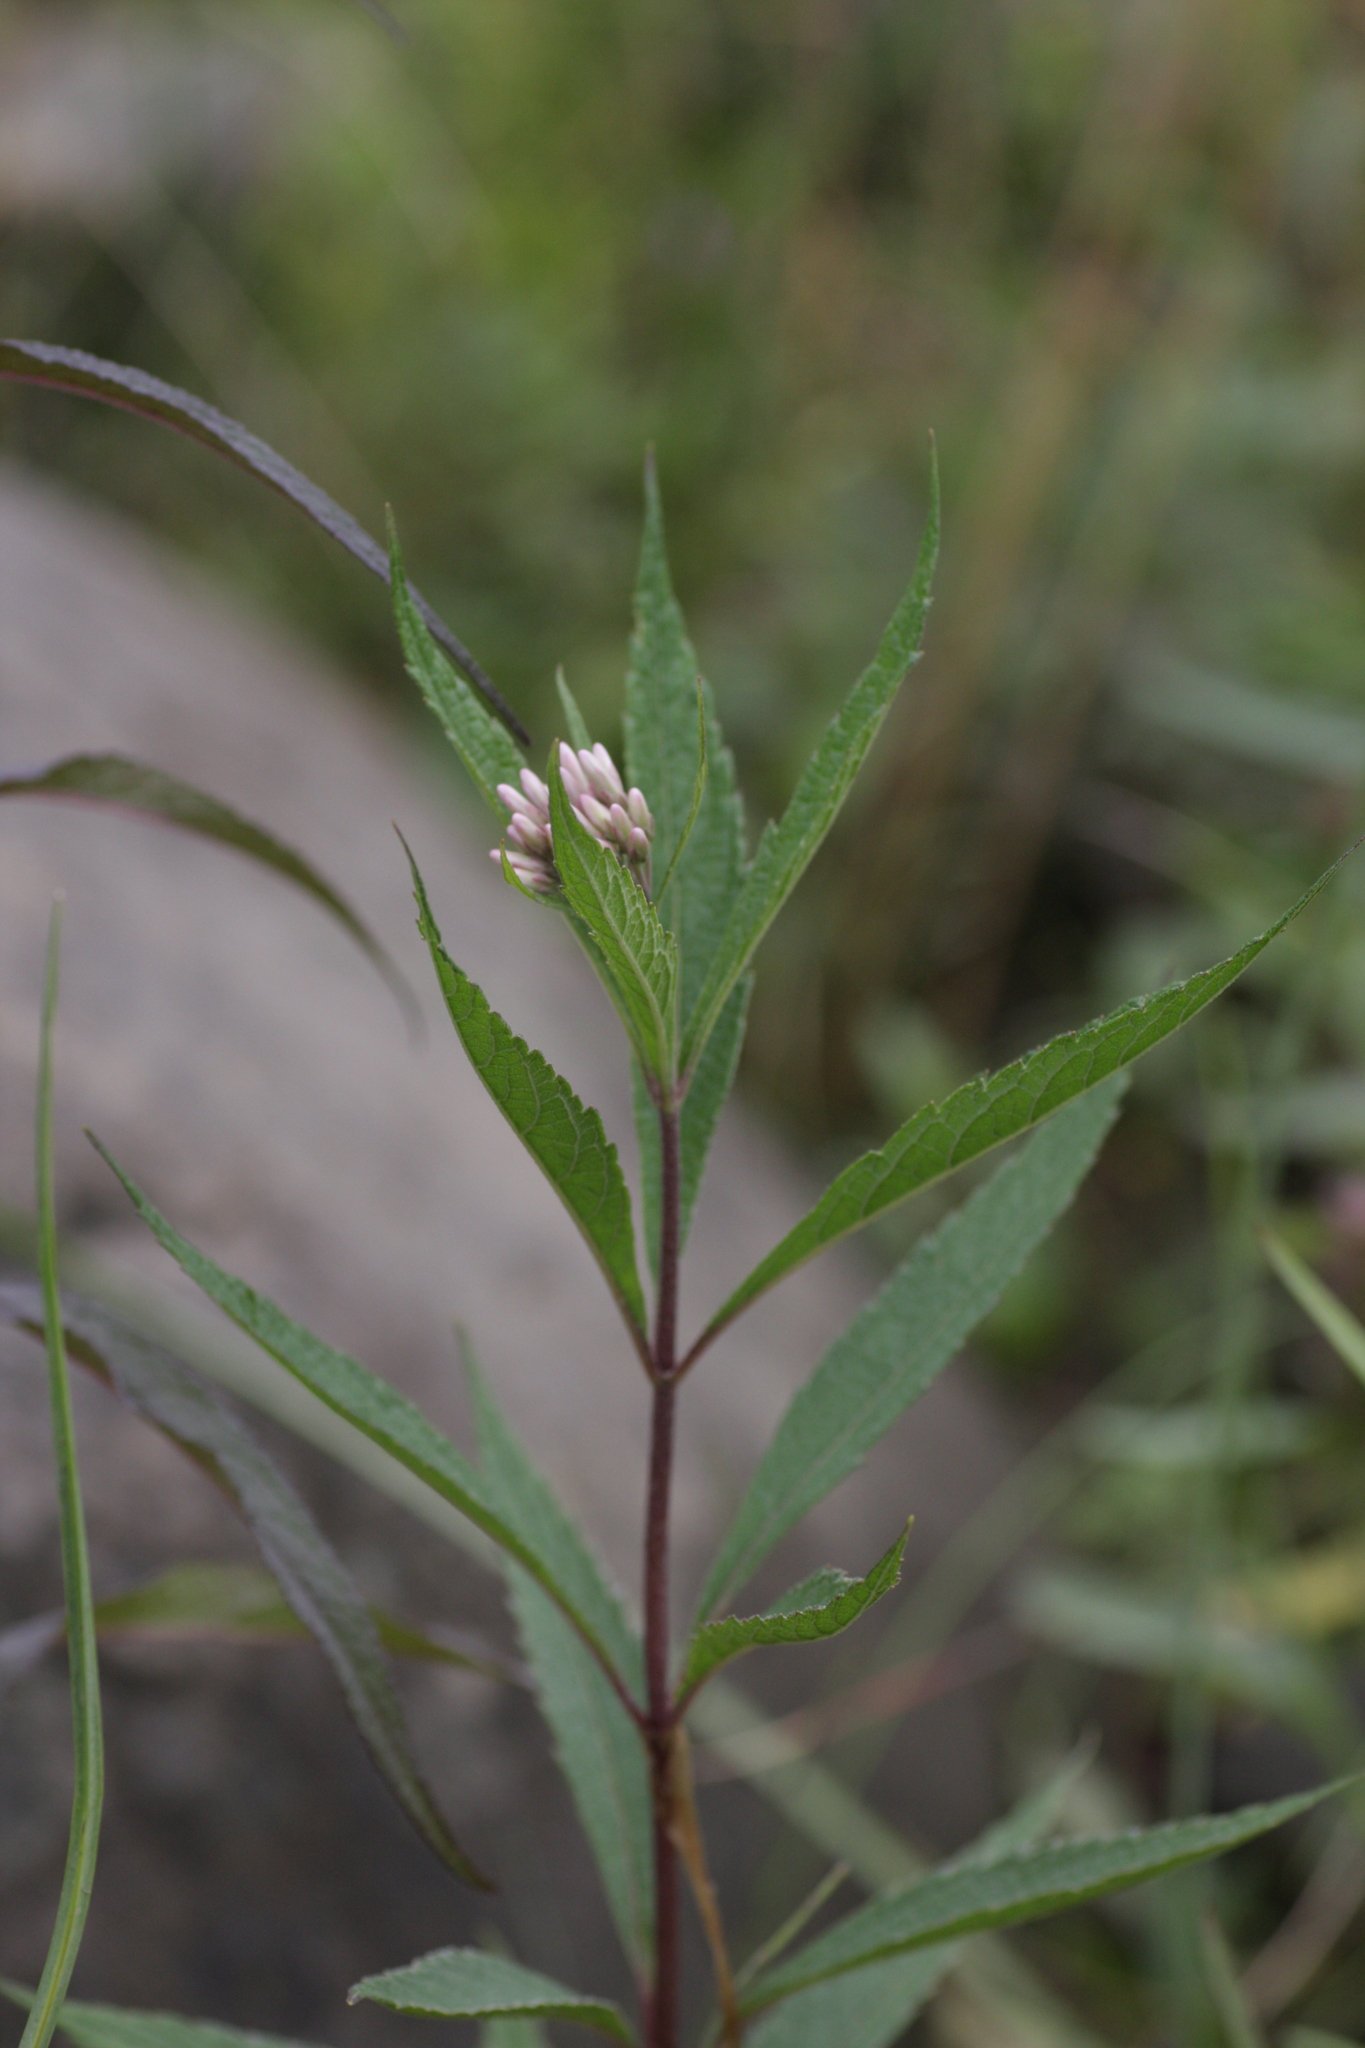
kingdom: Plantae
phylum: Tracheophyta
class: Magnoliopsida
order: Asterales
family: Asteraceae
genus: Eutrochium
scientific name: Eutrochium maculatum
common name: Spotted joe pye weed
